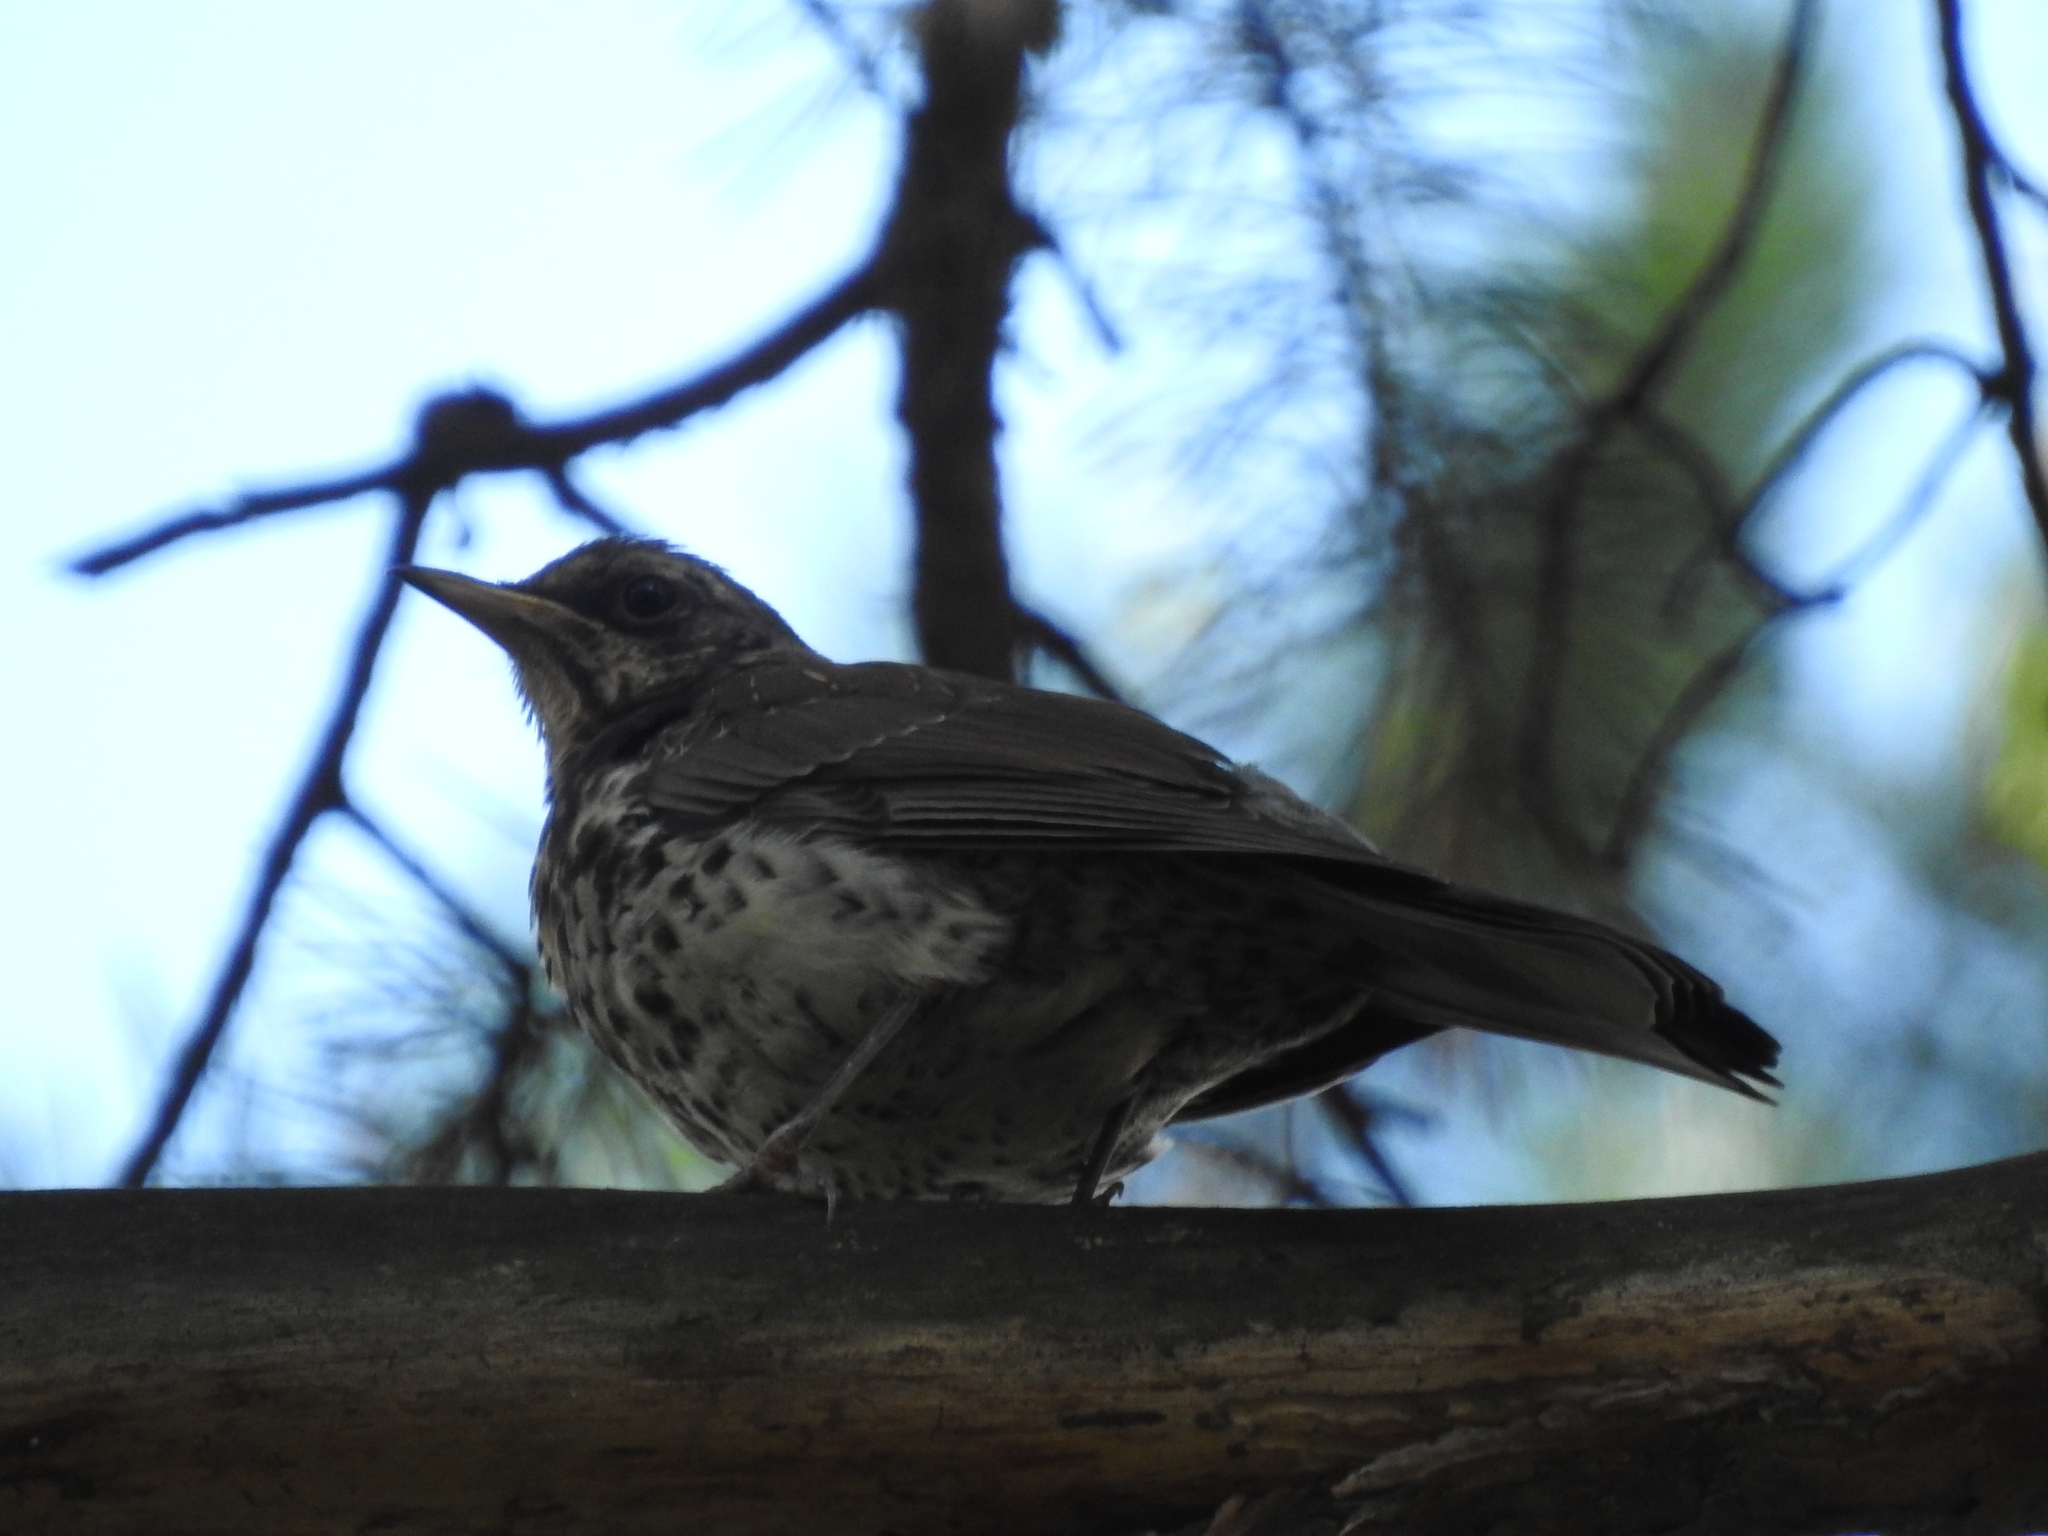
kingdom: Animalia
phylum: Chordata
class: Aves
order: Passeriformes
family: Turdidae
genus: Turdus
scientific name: Turdus pilaris
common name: Fieldfare
